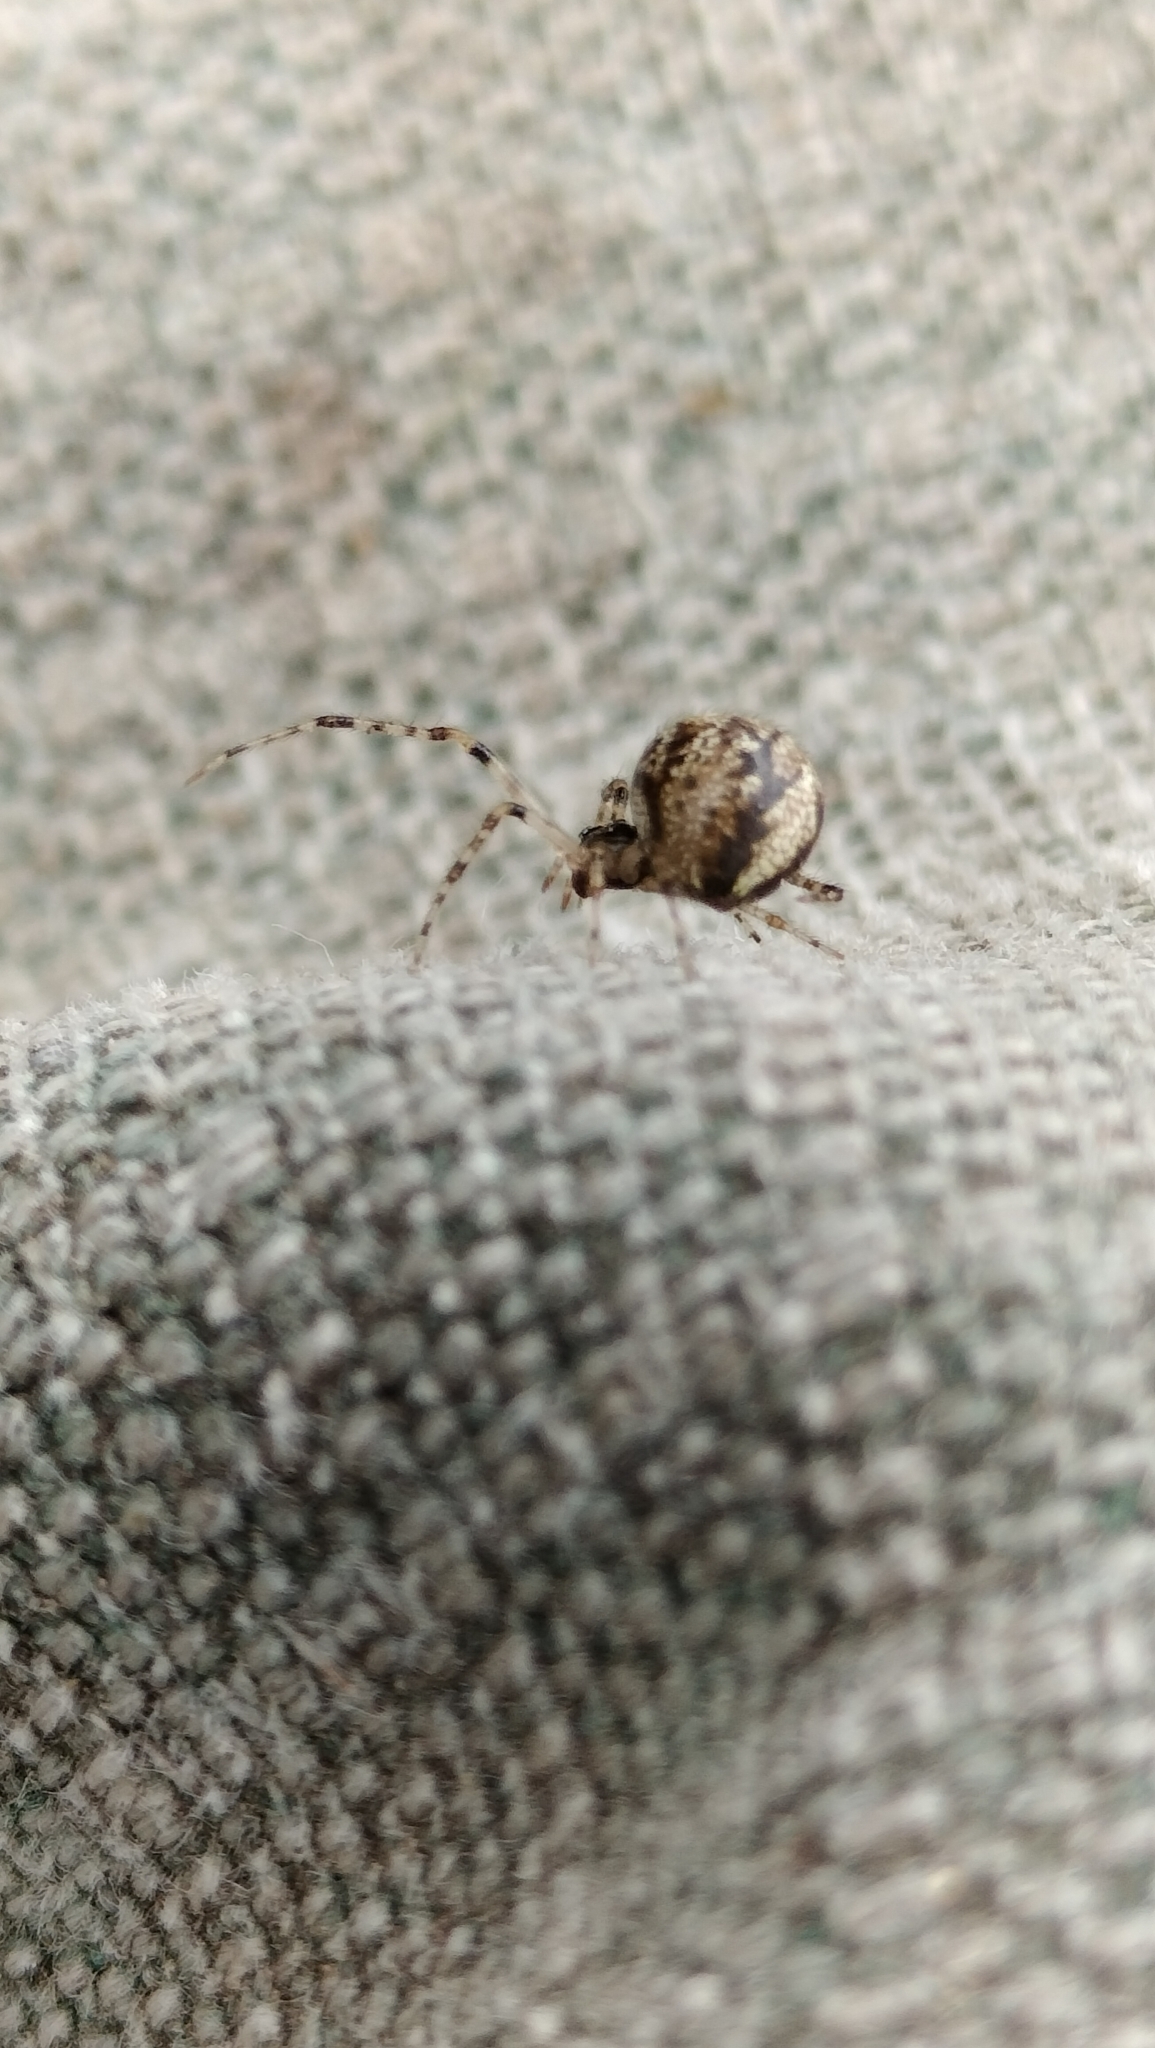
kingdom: Animalia
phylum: Arthropoda
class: Arachnida
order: Araneae
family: Theridiidae
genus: Cryptachaea
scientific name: Cryptachaea veruculata
